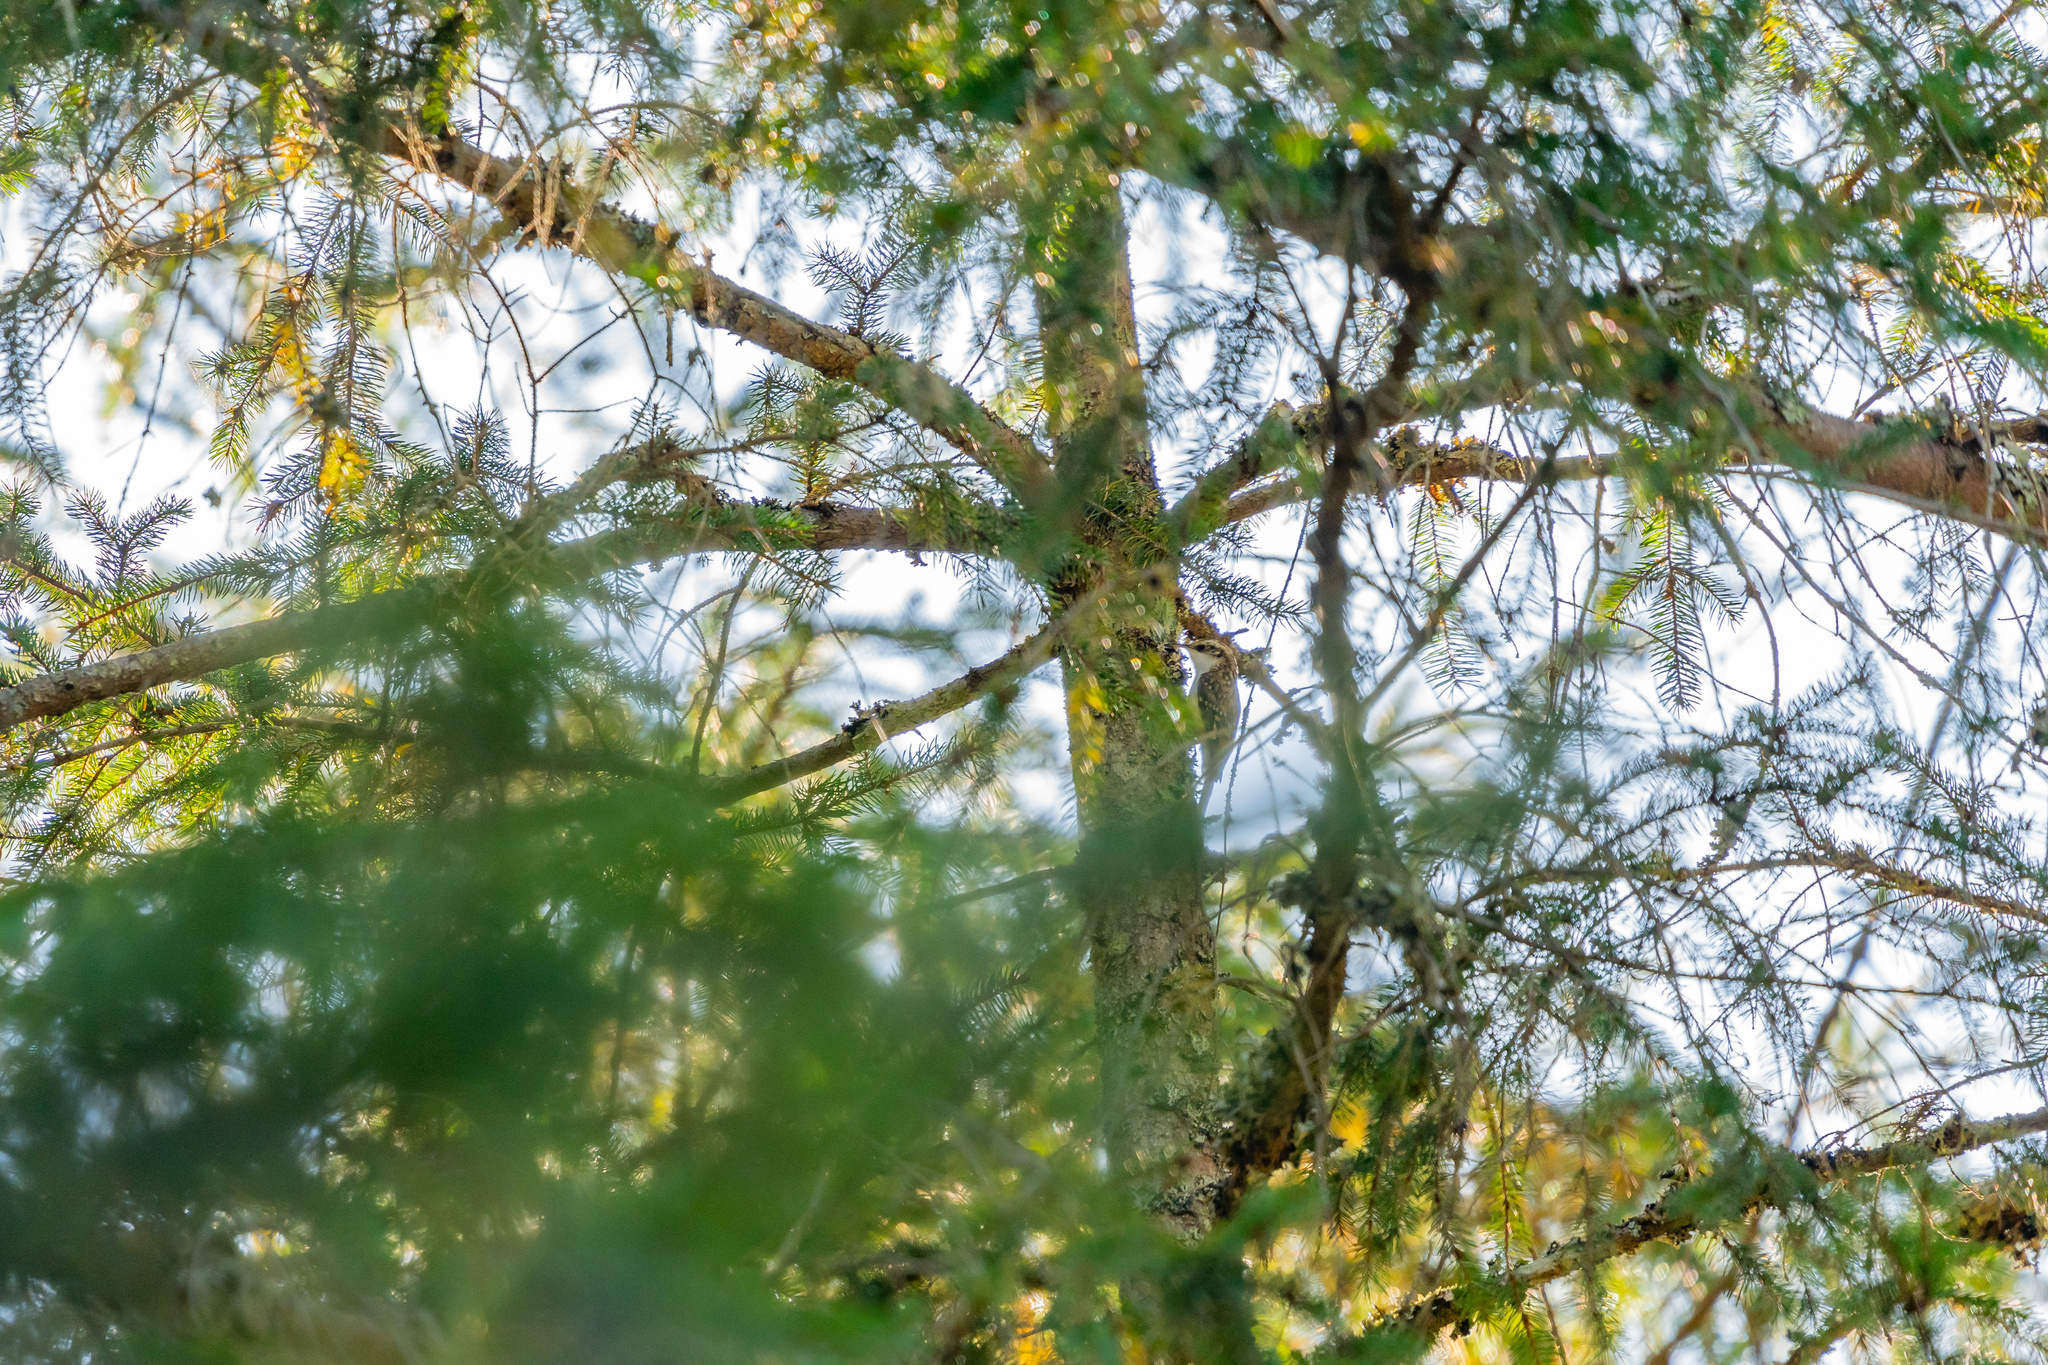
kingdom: Animalia
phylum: Chordata
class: Aves
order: Passeriformes
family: Certhiidae
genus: Certhia
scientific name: Certhia familiaris
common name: Eurasian treecreeper
